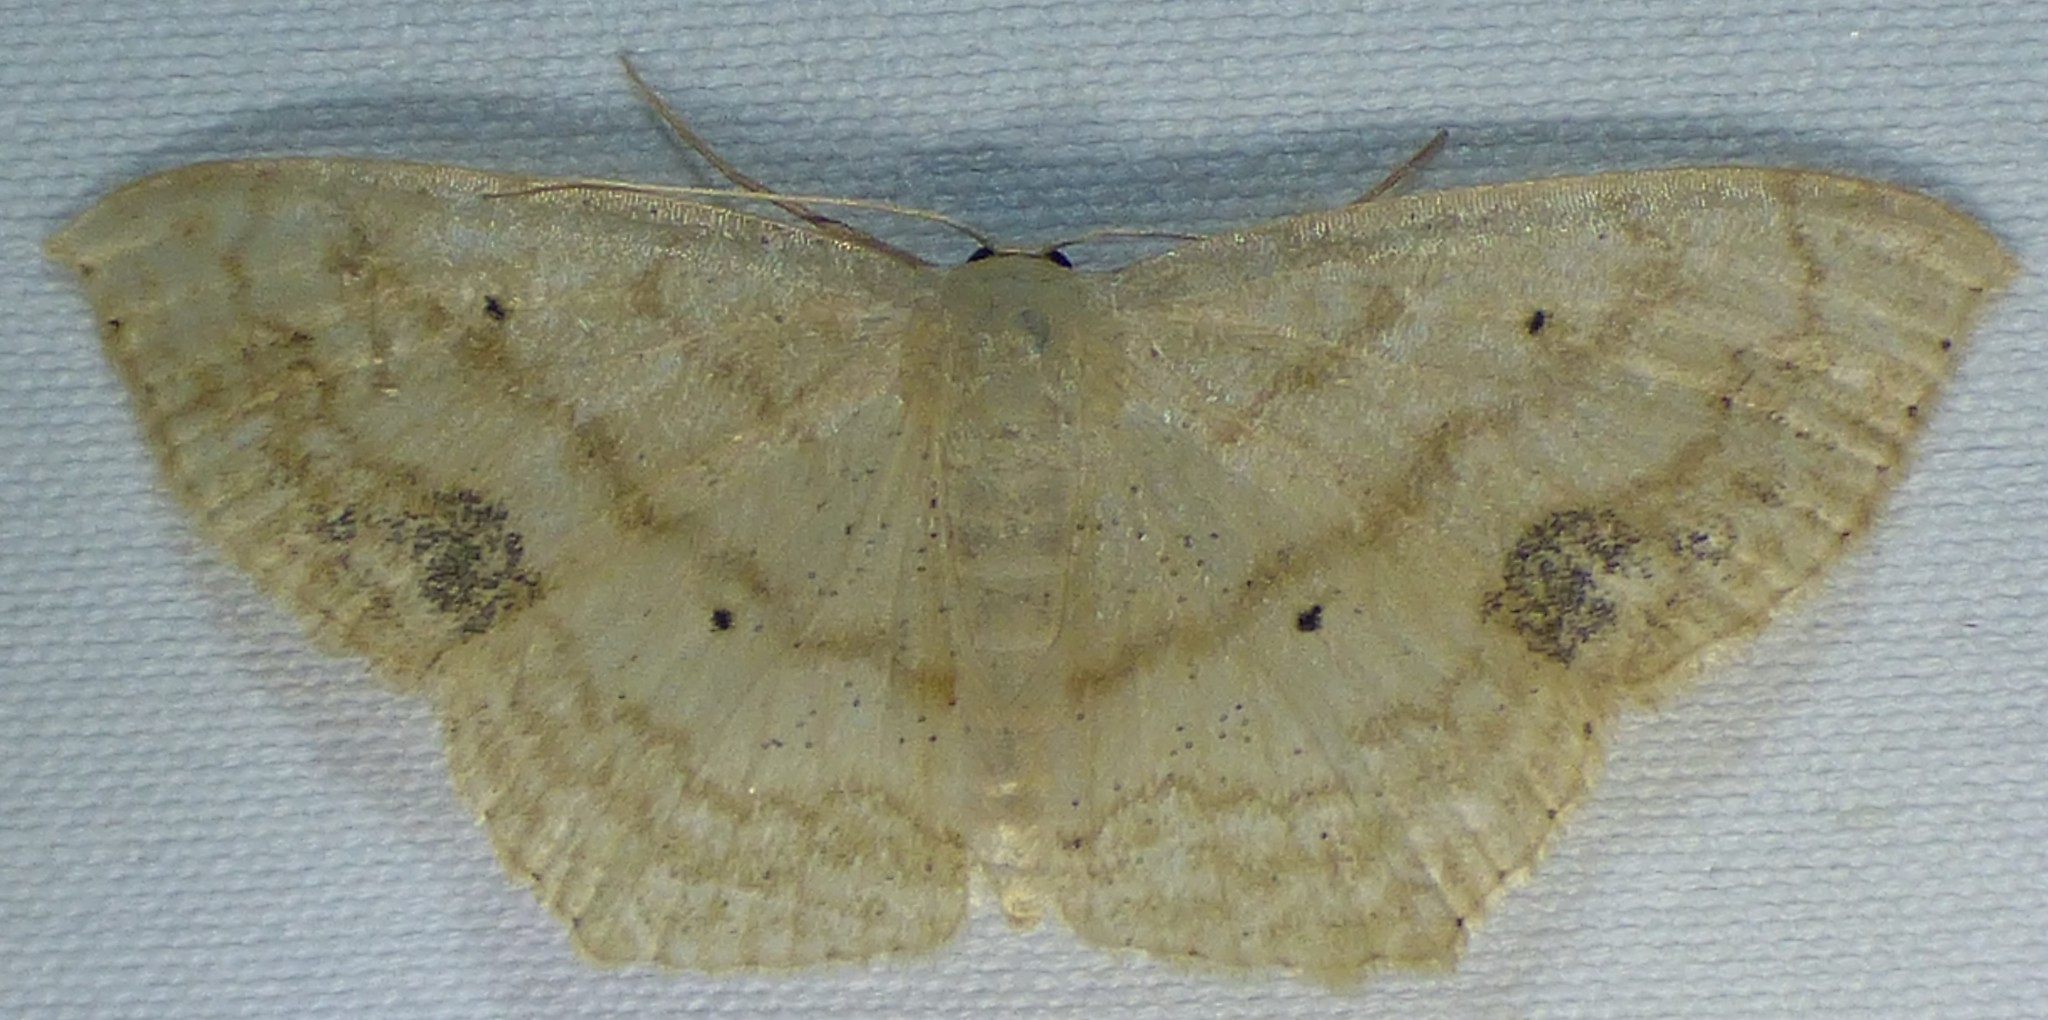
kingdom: Animalia
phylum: Arthropoda
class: Insecta
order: Lepidoptera
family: Geometridae
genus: Scopula
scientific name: Scopula limboundata
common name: Large lace border
